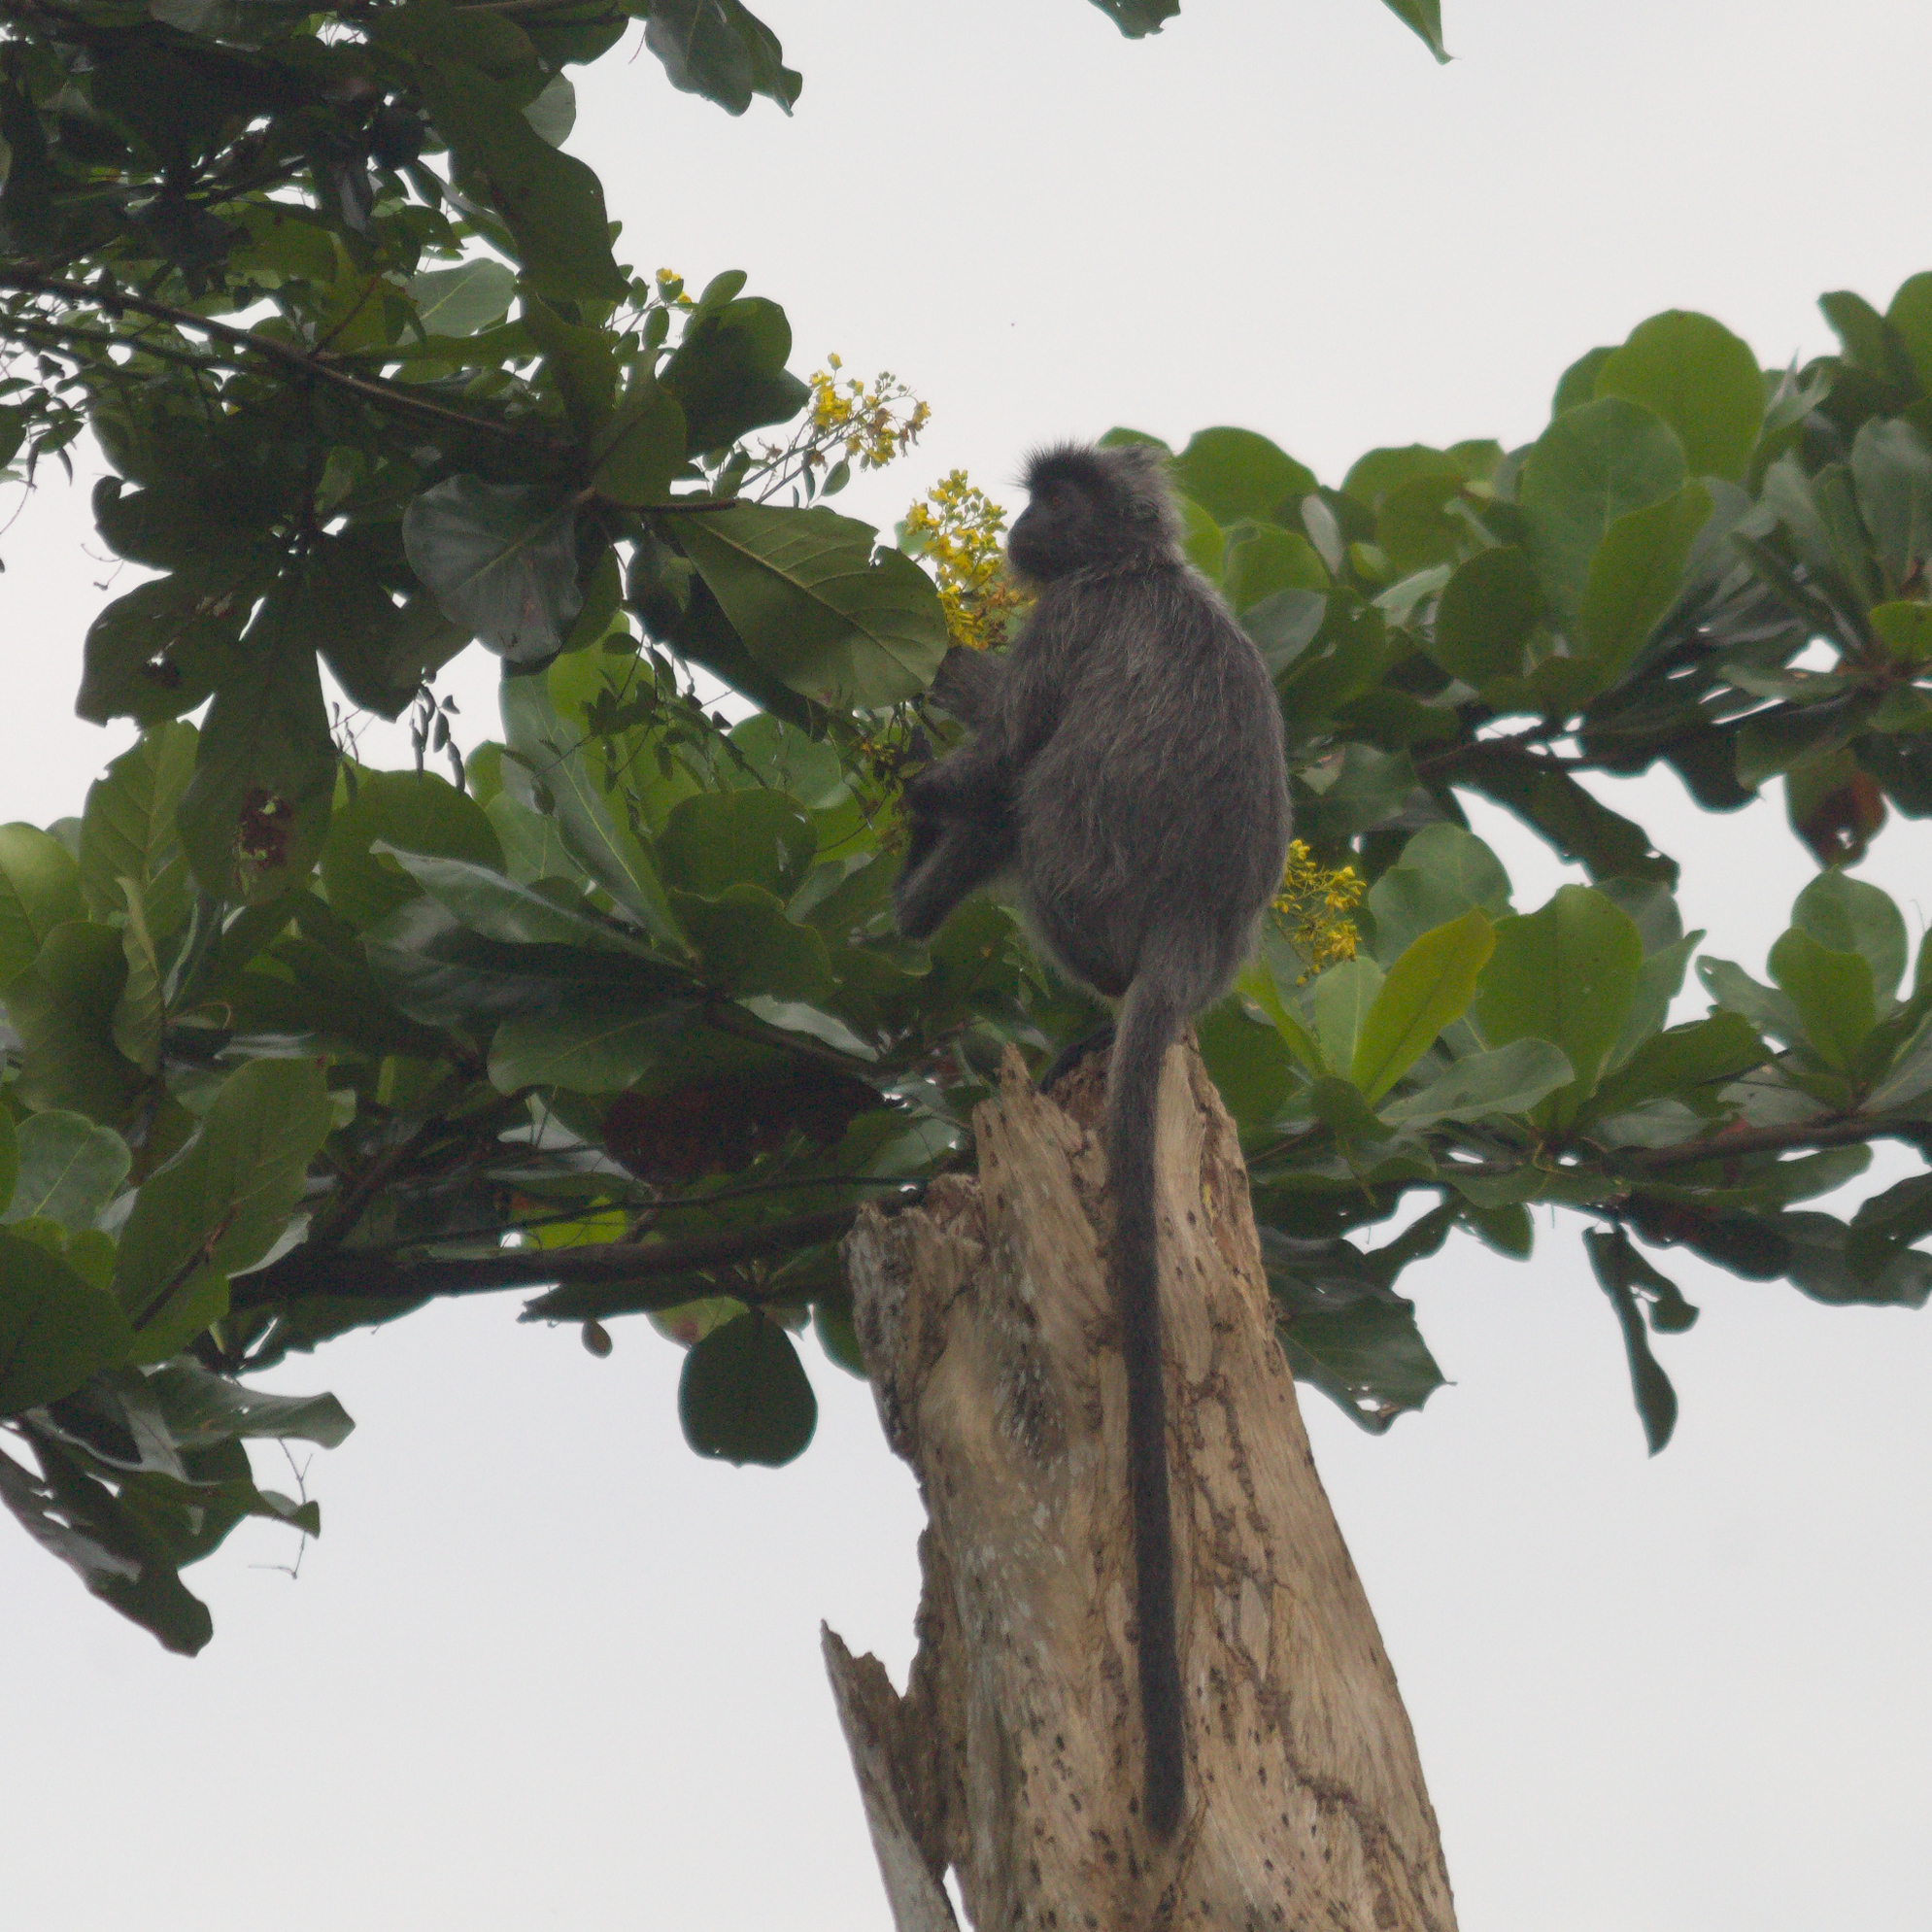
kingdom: Animalia
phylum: Chordata
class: Mammalia
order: Primates
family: Cercopithecidae
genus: Trachypithecus
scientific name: Trachypithecus selangorensis
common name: Selangor silvery langur
